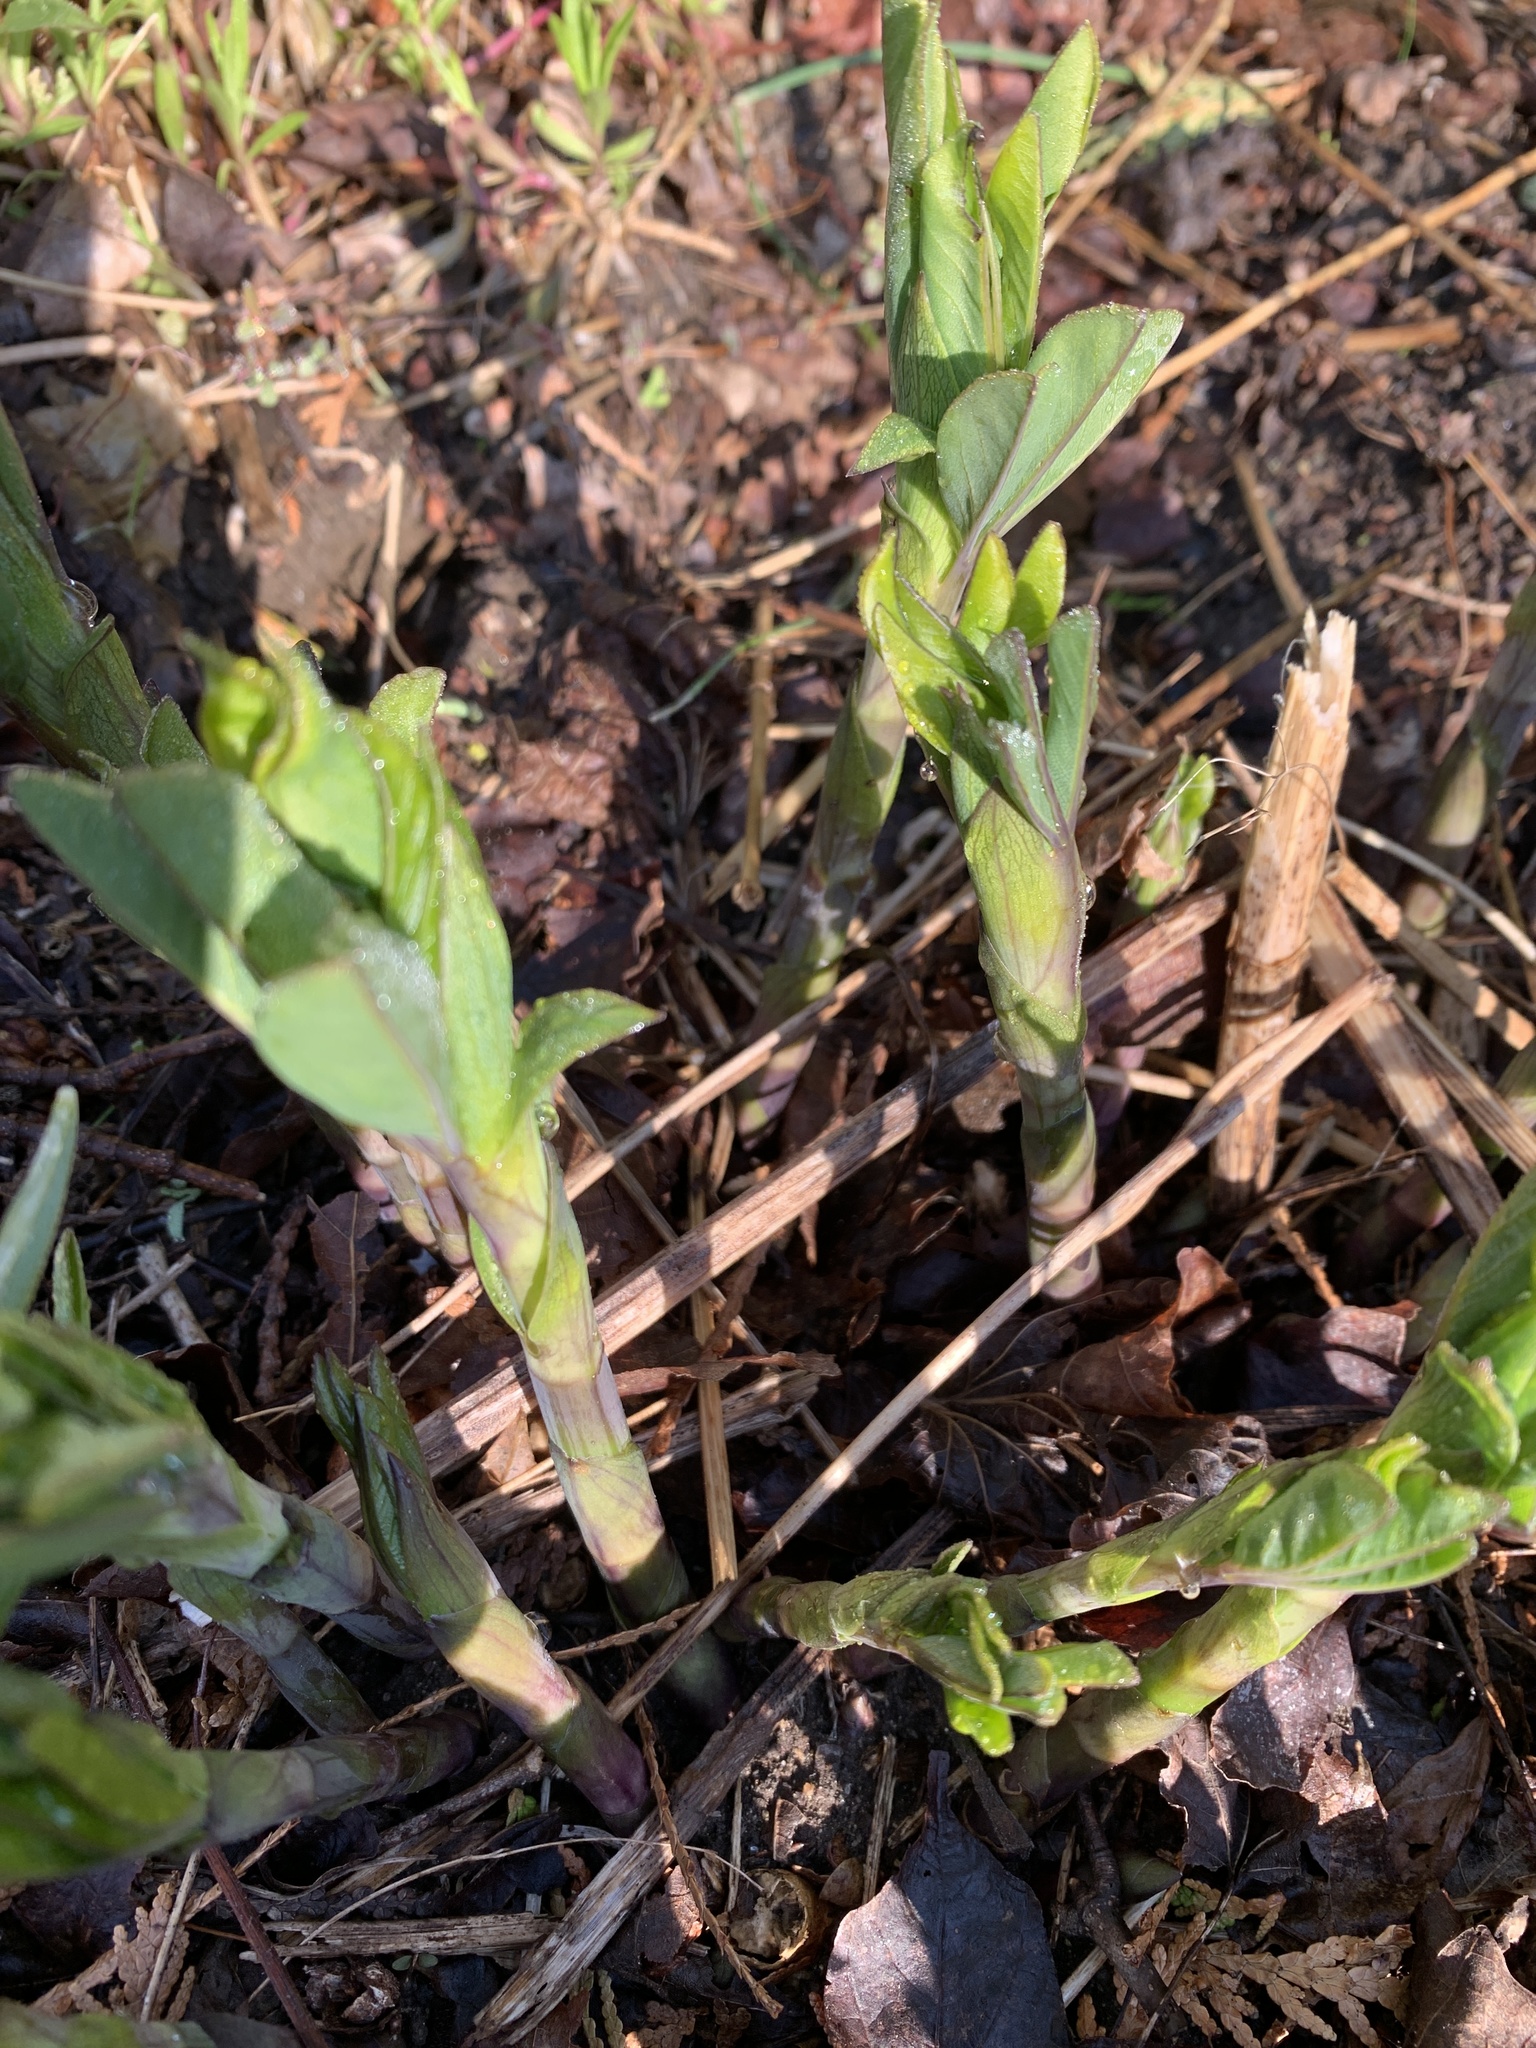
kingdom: Plantae
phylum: Tracheophyta
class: Magnoliopsida
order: Fabales
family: Fabaceae
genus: Baptisia
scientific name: Baptisia australis
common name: Blue false indigo
